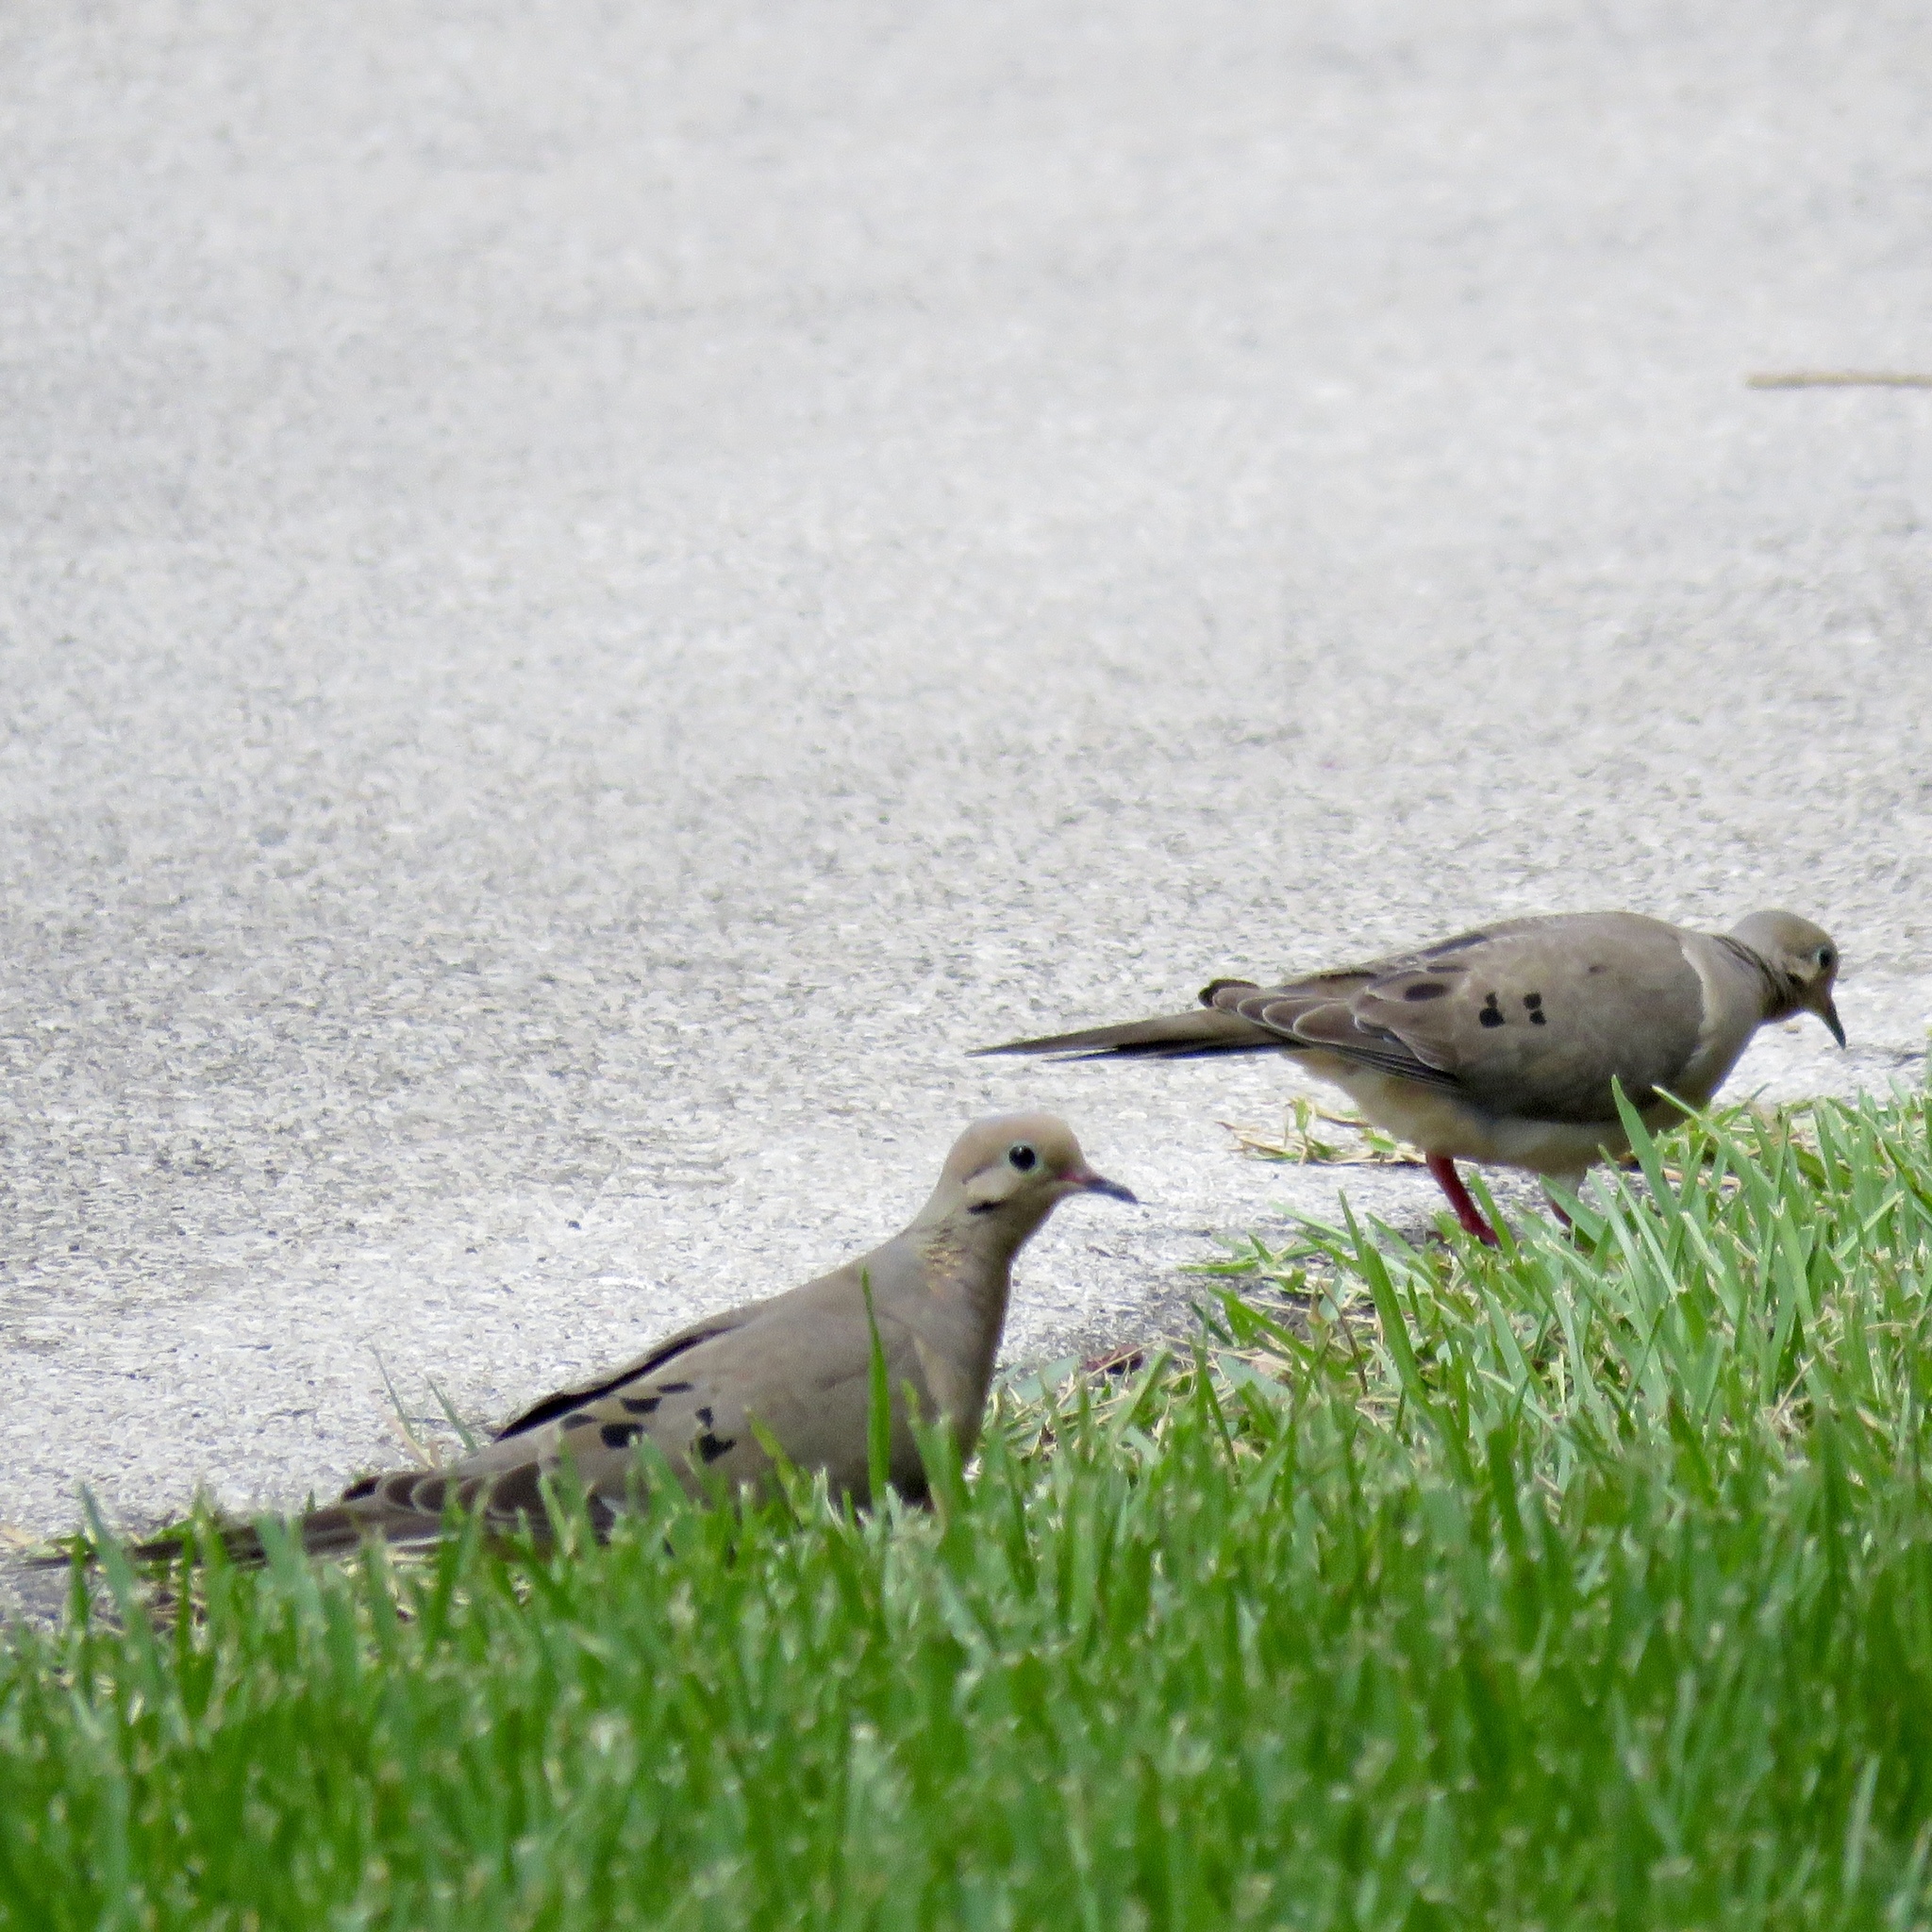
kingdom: Animalia
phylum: Chordata
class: Aves
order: Columbiformes
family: Columbidae
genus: Zenaida
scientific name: Zenaida macroura
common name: Mourning dove
